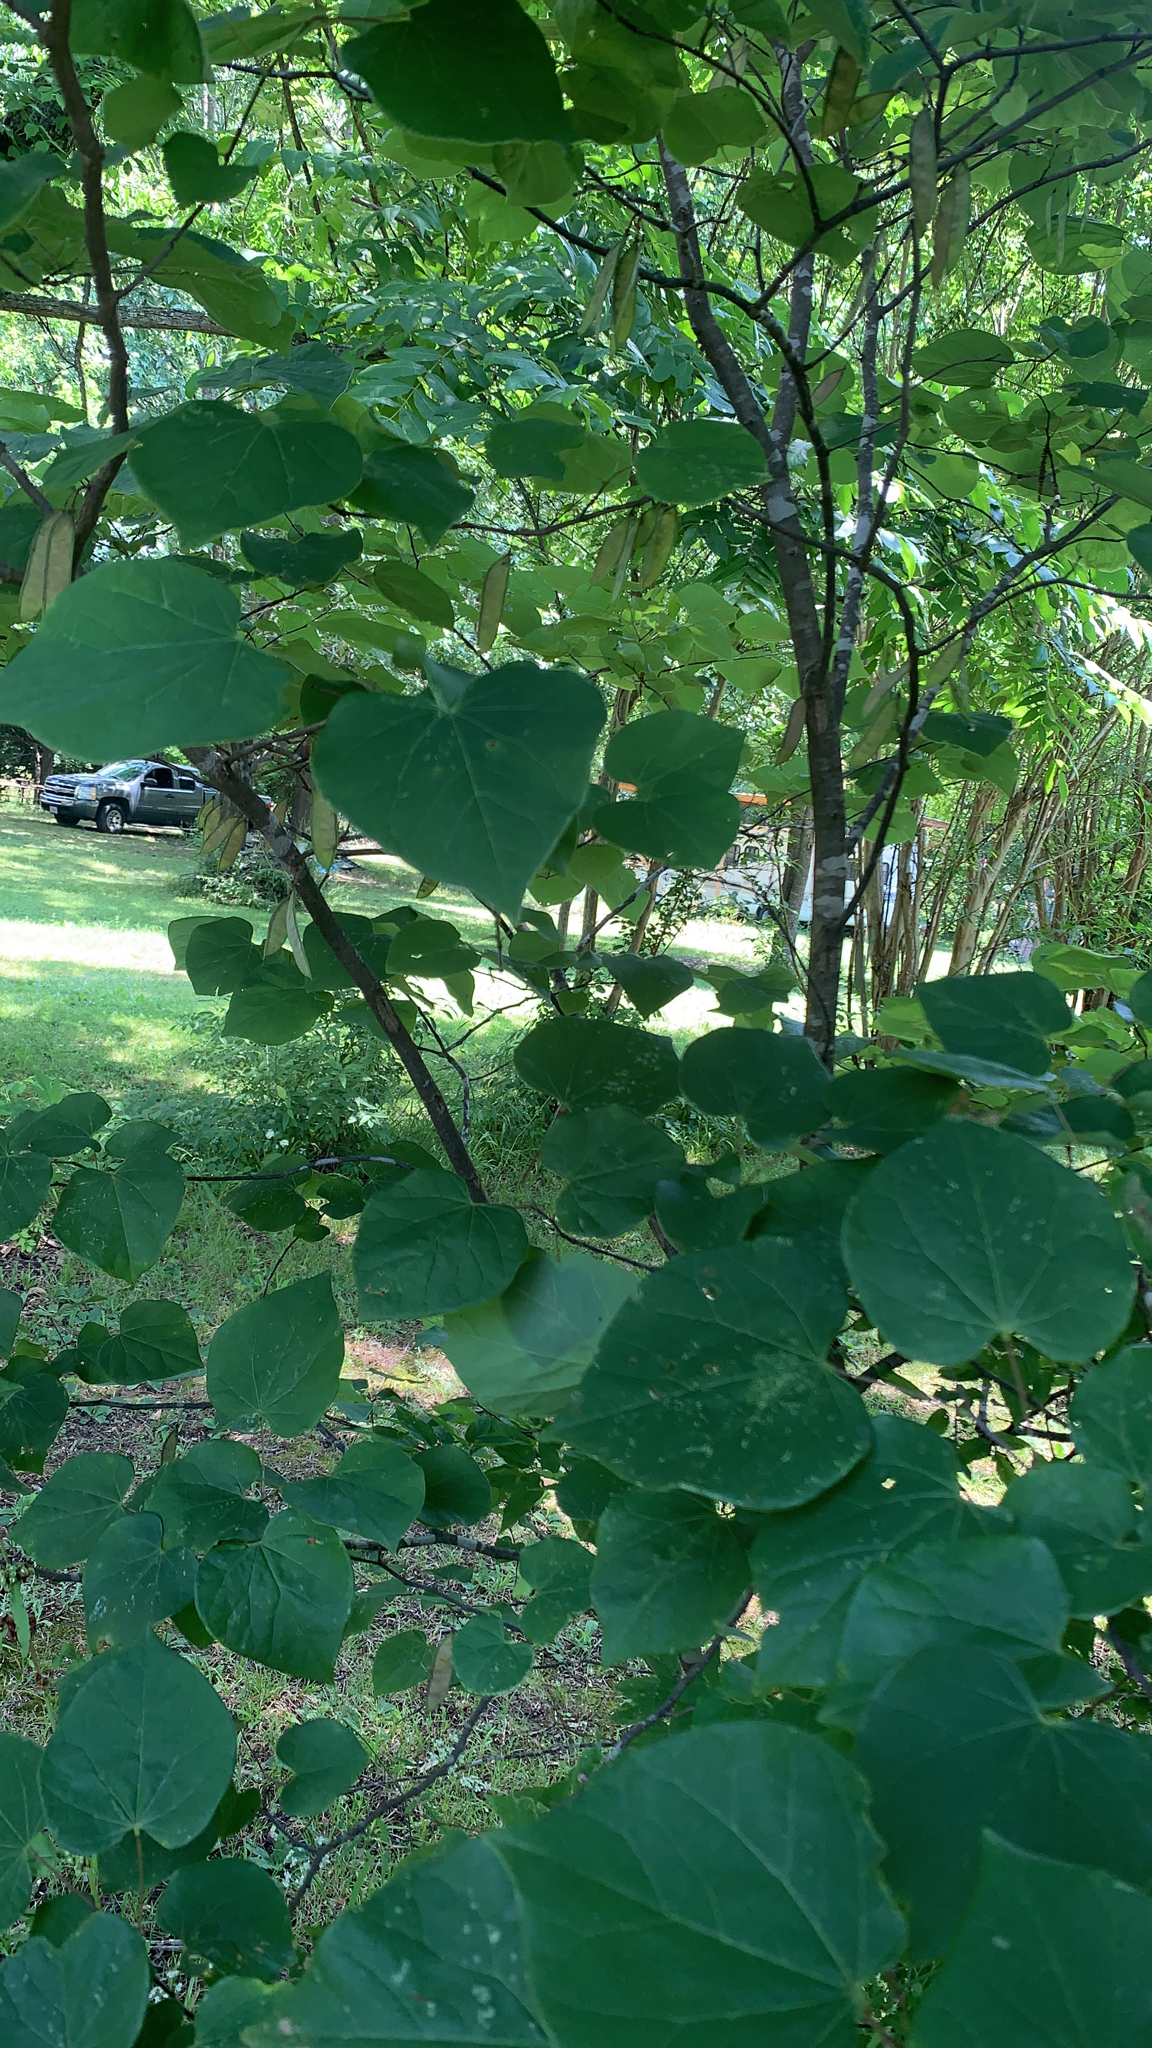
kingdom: Plantae
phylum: Tracheophyta
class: Magnoliopsida
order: Fabales
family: Fabaceae
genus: Cercis
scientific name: Cercis canadensis
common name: Eastern redbud
